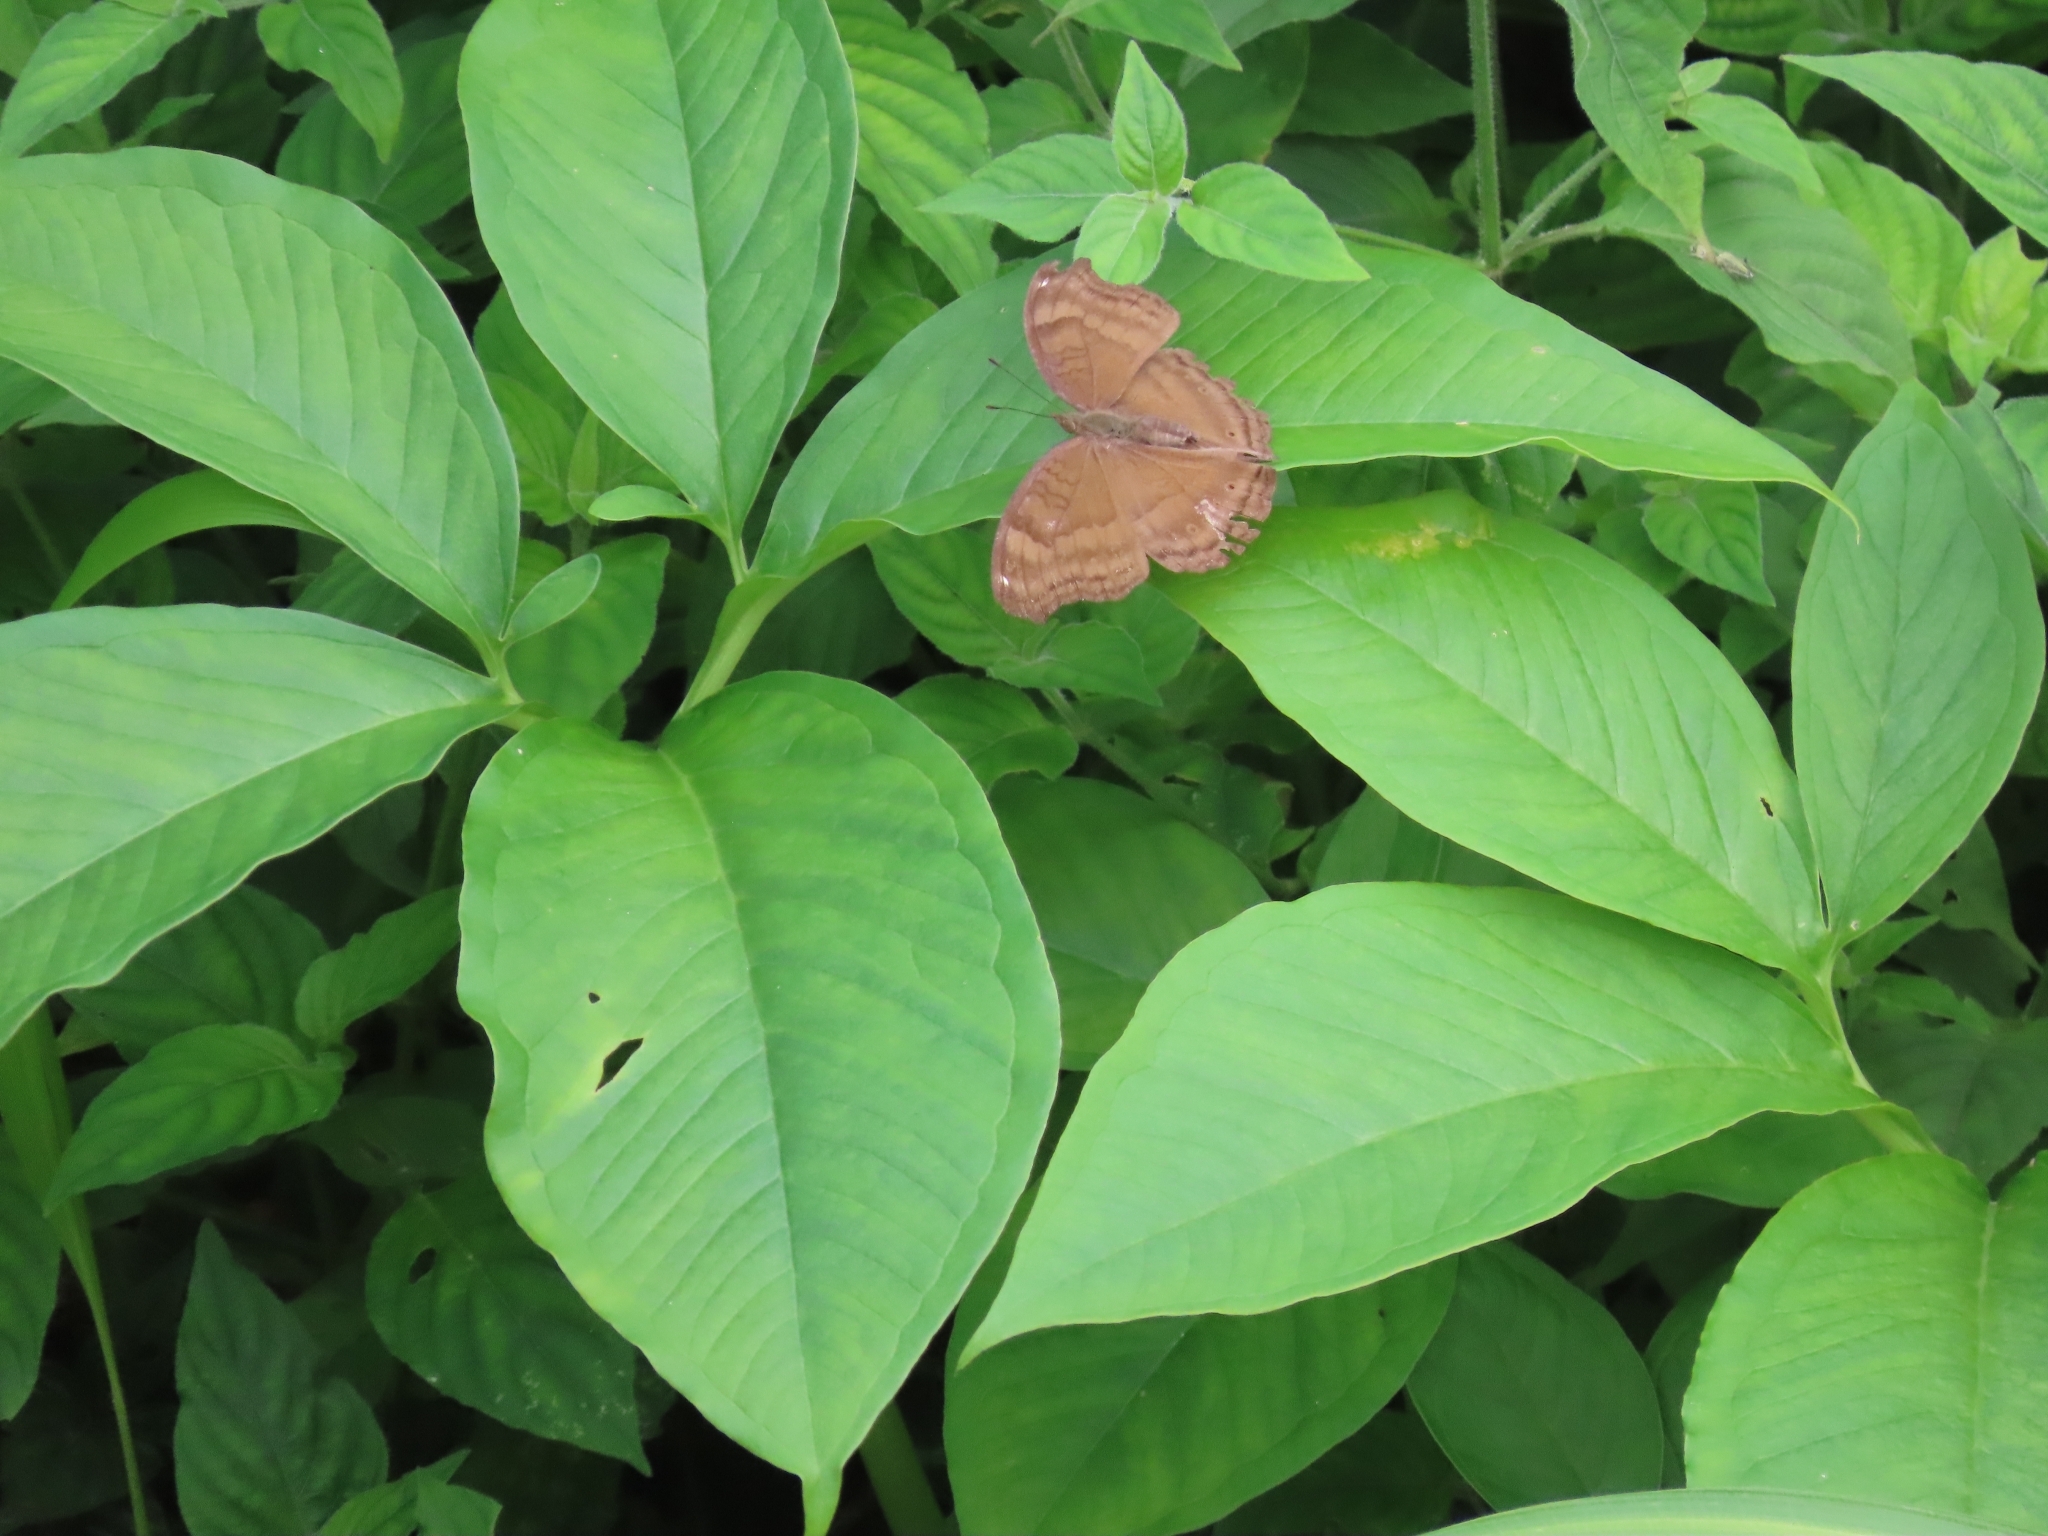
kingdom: Animalia
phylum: Chordata
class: Aves
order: Columbiformes
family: Columbidae
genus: Spilopelia
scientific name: Spilopelia chinensis
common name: Spotted dove
